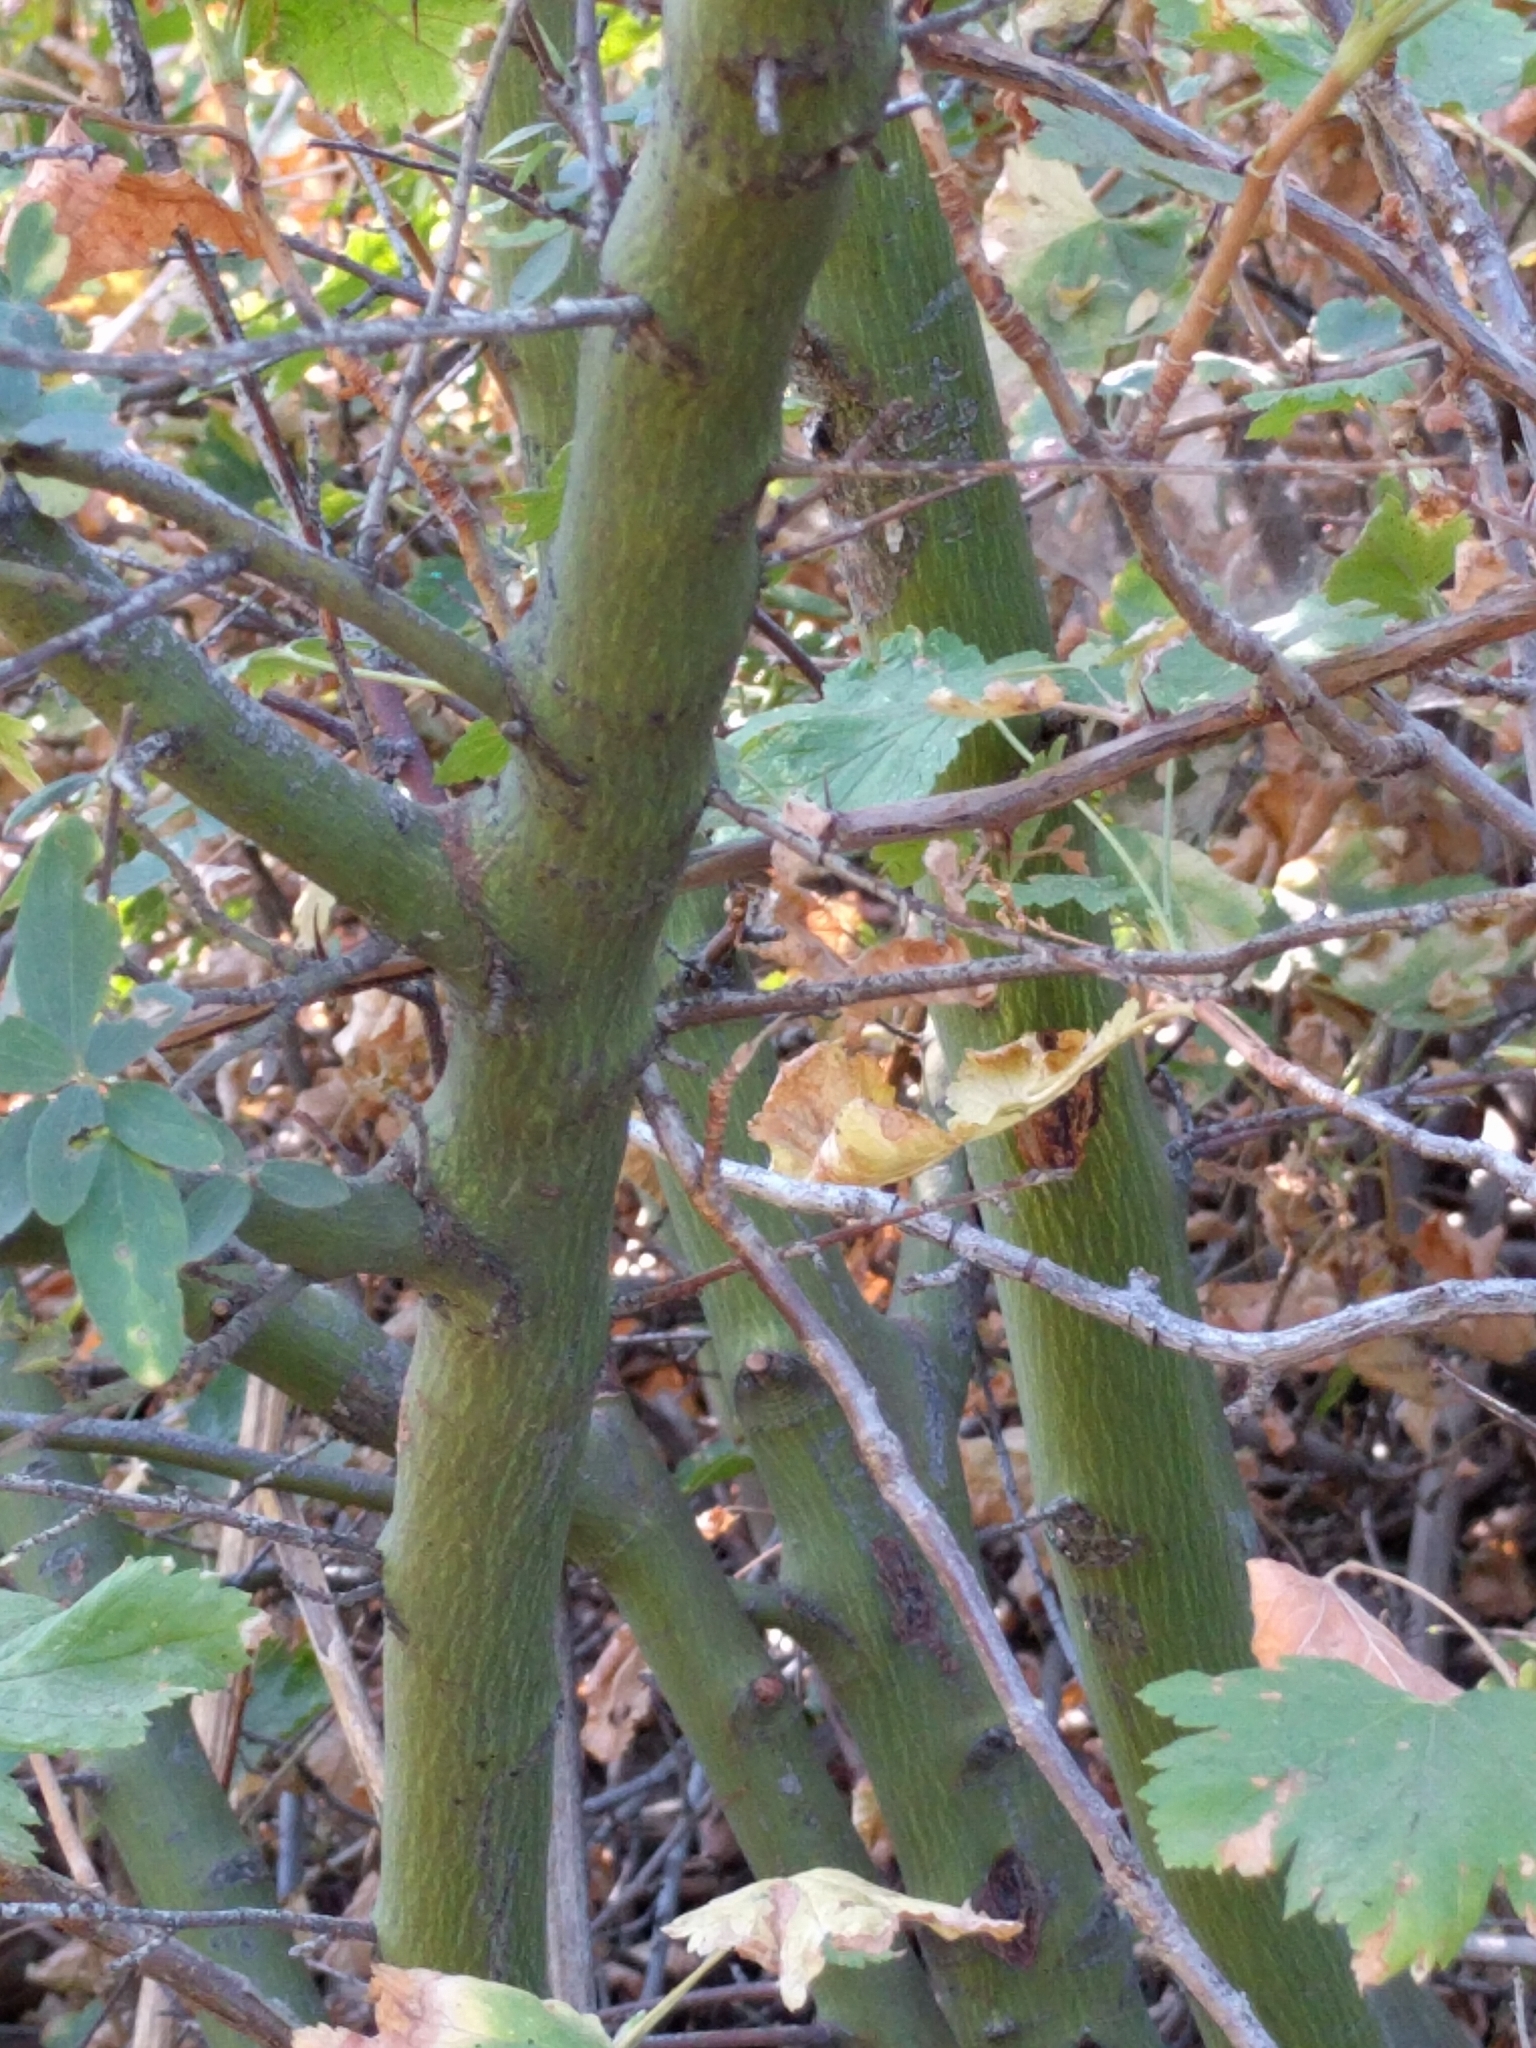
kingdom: Plantae
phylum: Tracheophyta
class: Magnoliopsida
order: Rosales
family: Rhamnaceae
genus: Ceanothus
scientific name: Ceanothus integerrimus
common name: Deerbrush ceanothus
